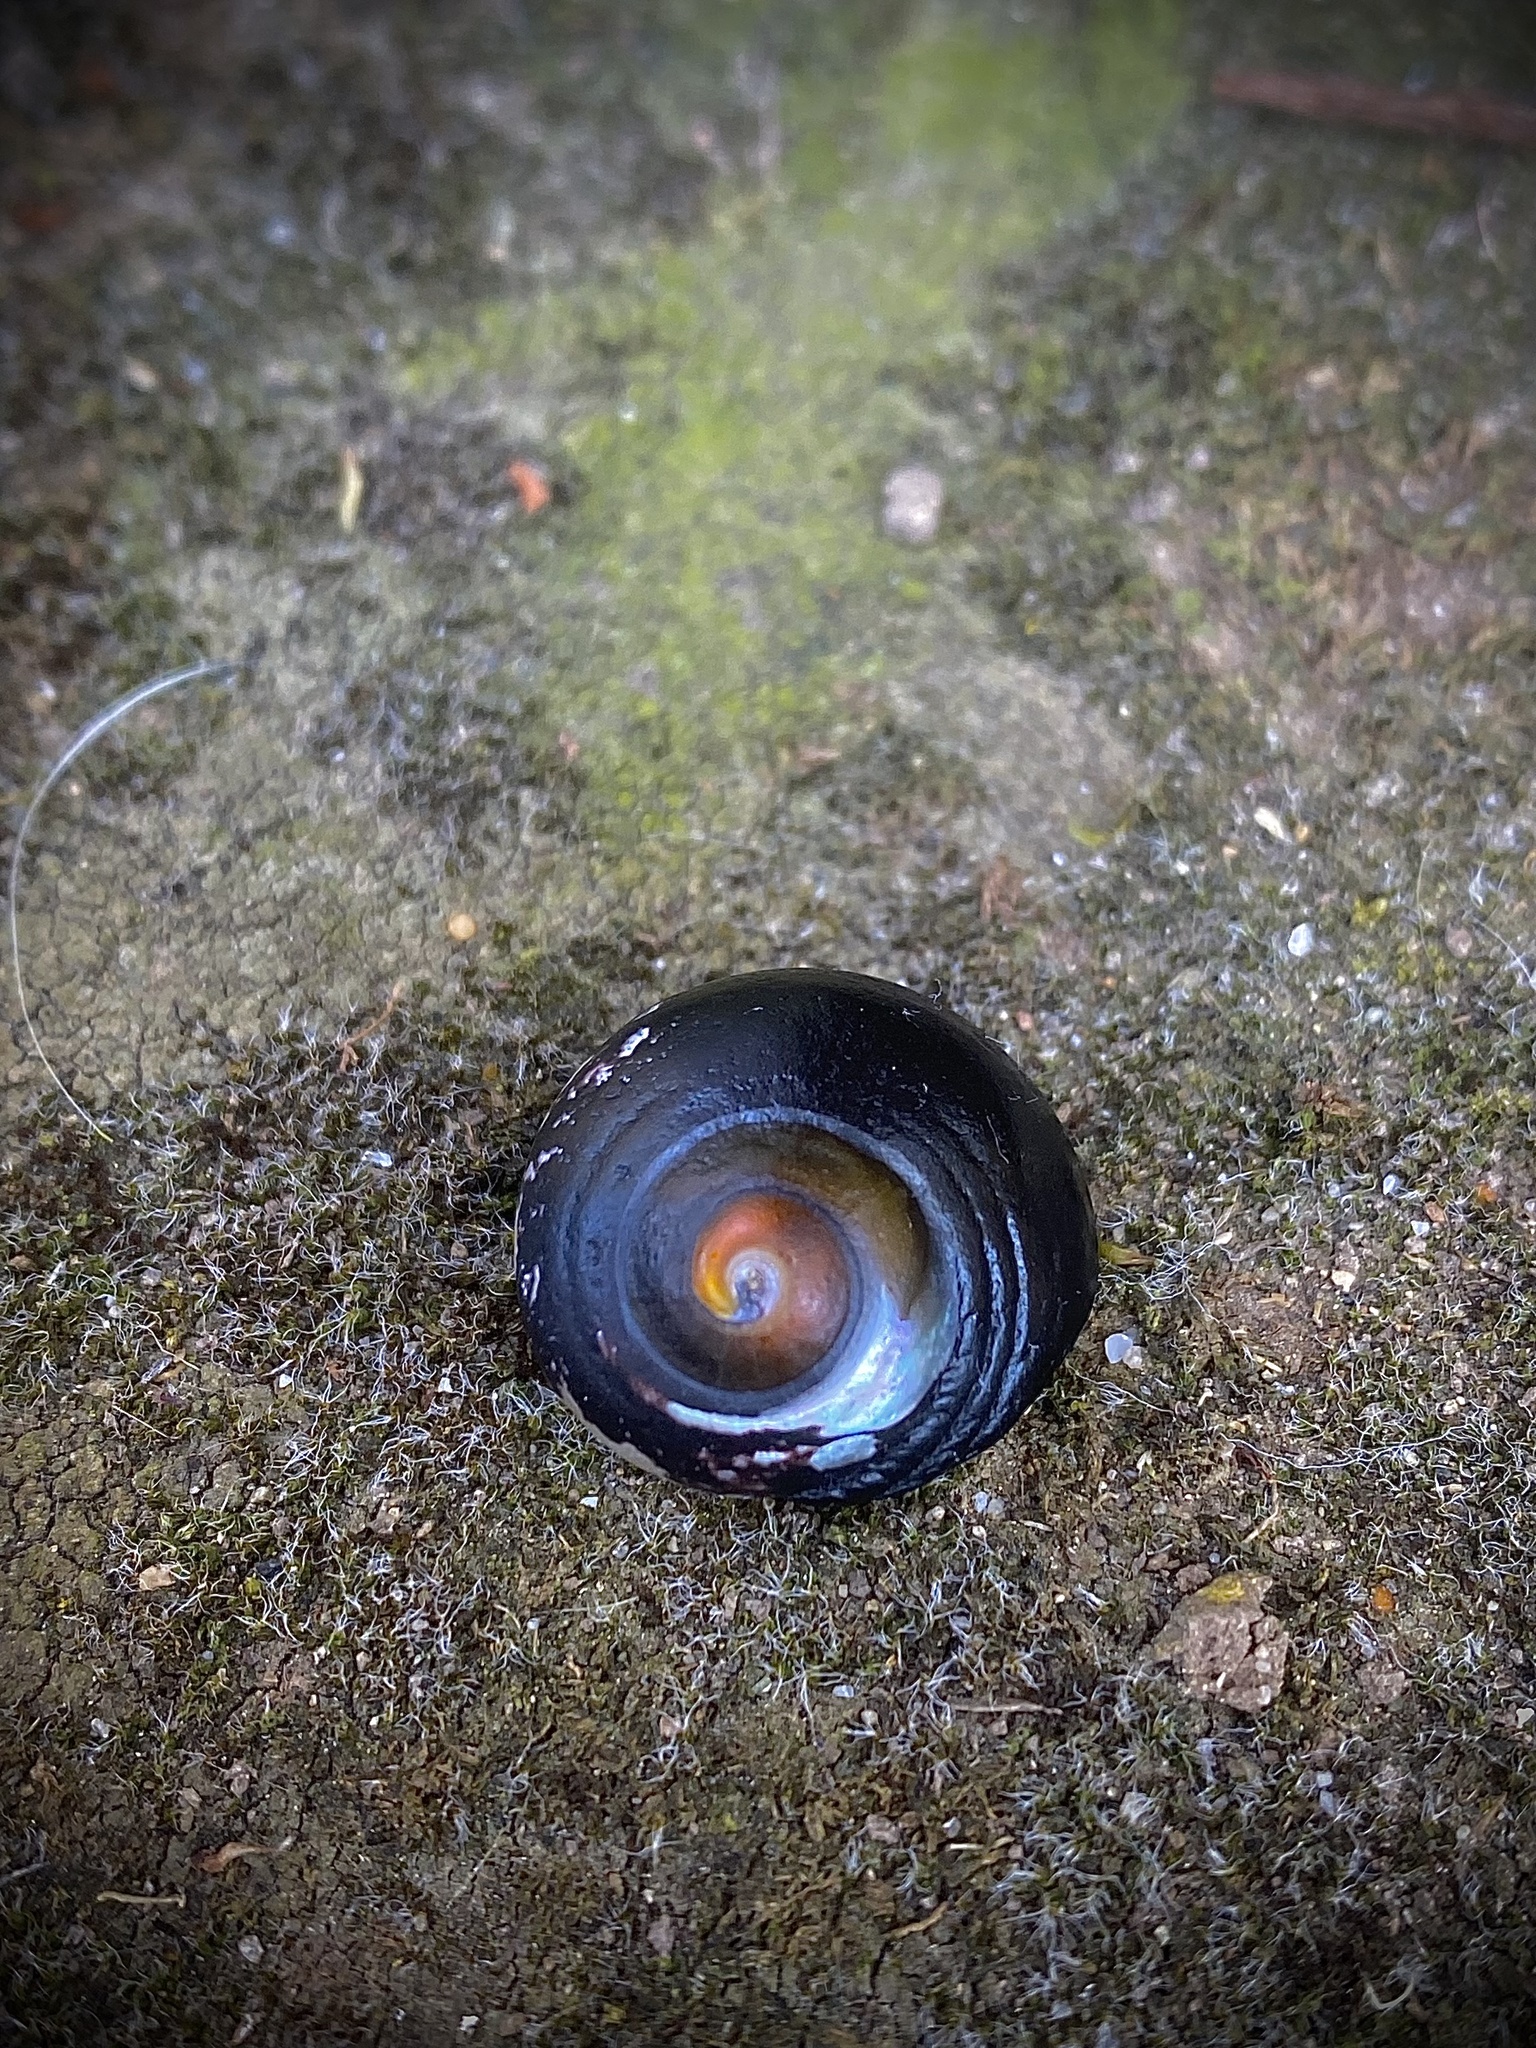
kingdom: Animalia
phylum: Mollusca
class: Gastropoda
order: Trochida
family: Tegulidae
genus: Tegula
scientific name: Tegula funebralis
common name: Black tegula
